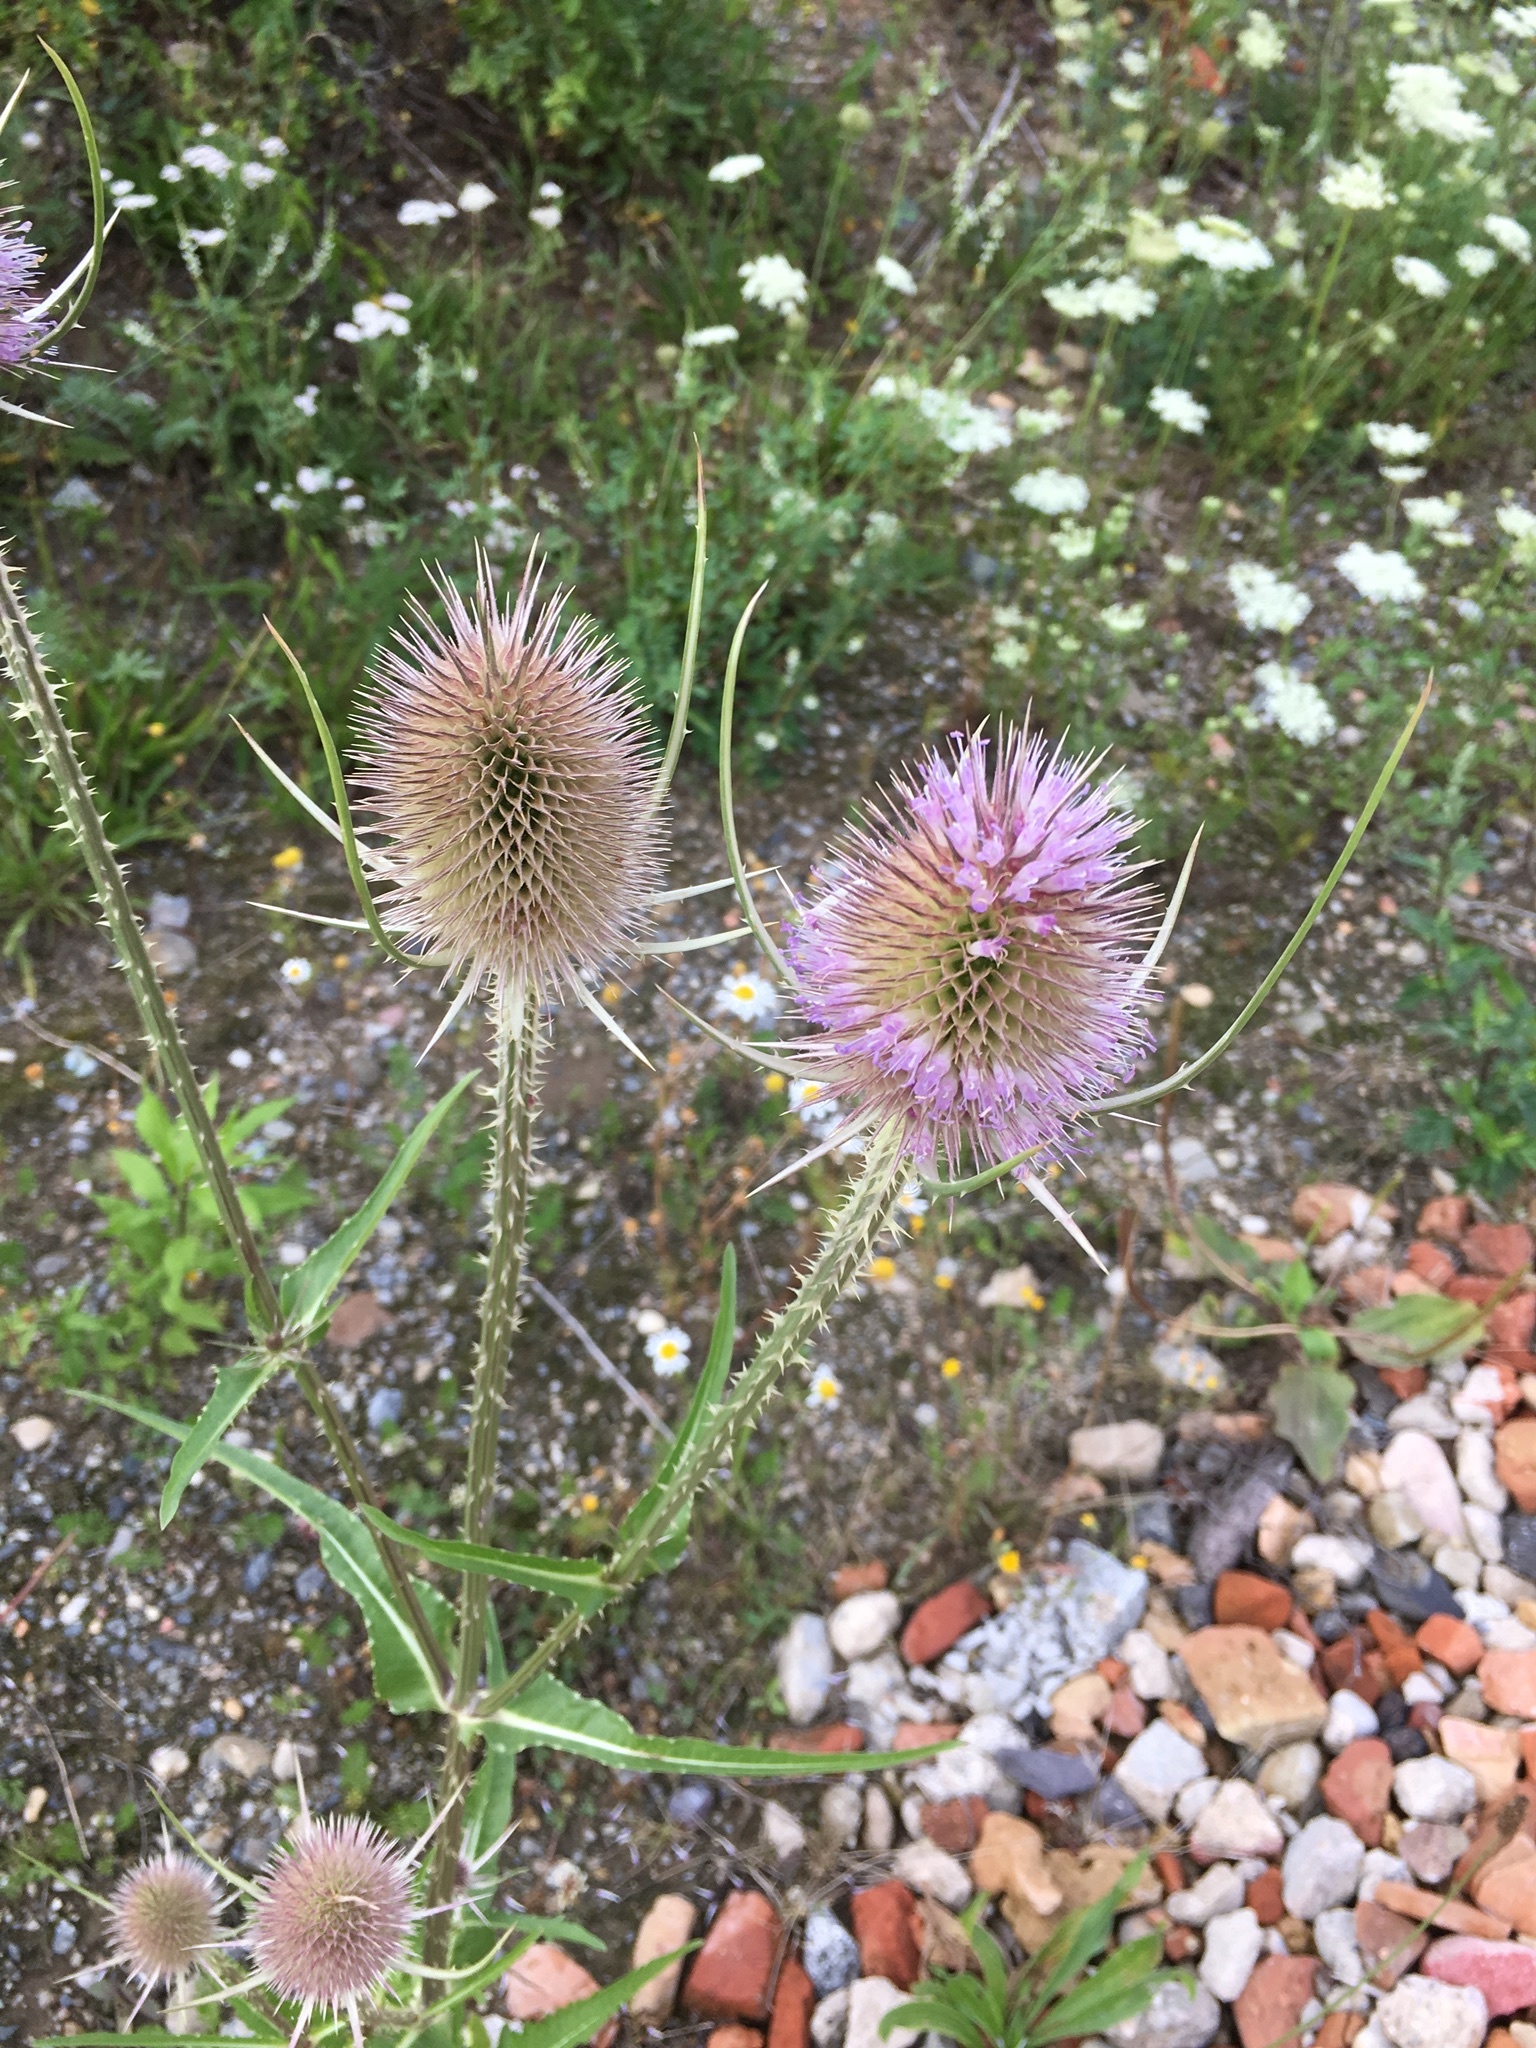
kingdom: Plantae
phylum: Tracheophyta
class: Magnoliopsida
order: Dipsacales
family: Caprifoliaceae
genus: Dipsacus
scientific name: Dipsacus fullonum
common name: Teasel
